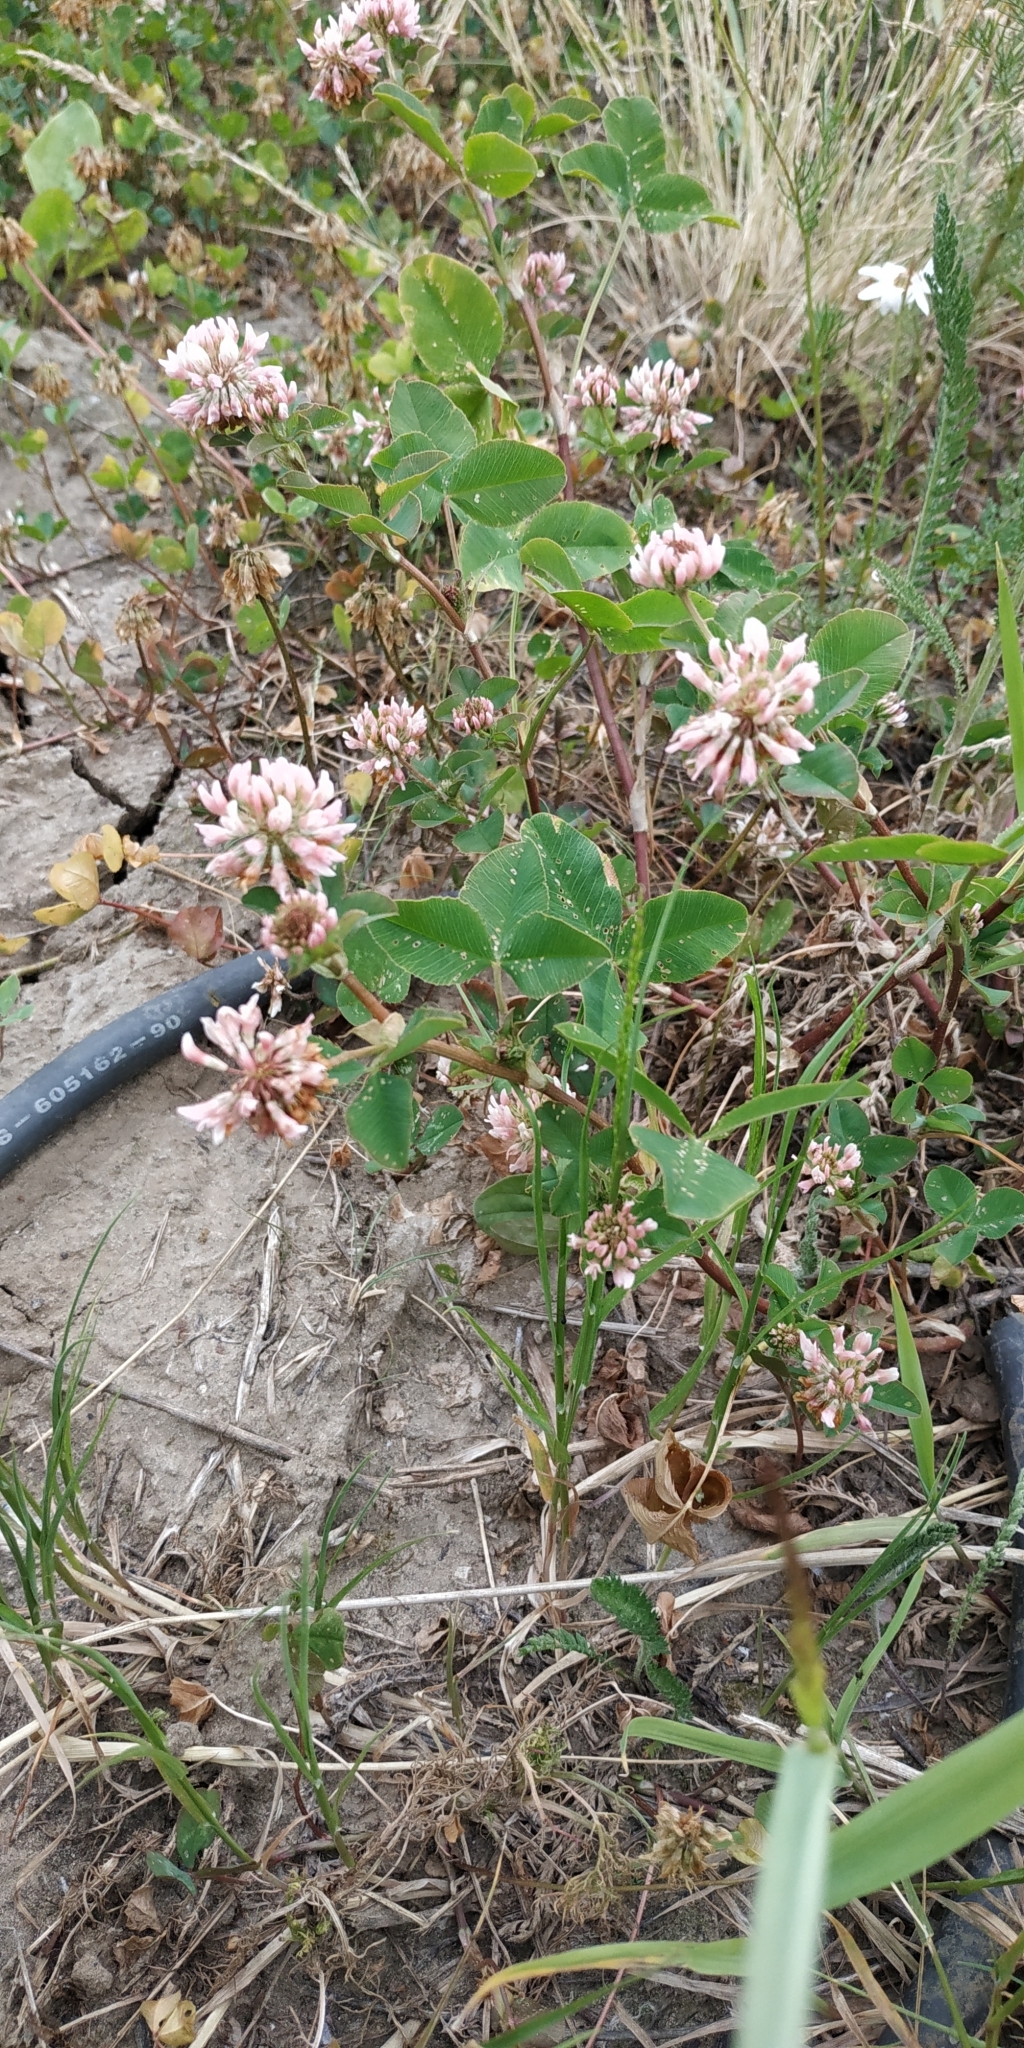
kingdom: Plantae
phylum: Tracheophyta
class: Magnoliopsida
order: Fabales
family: Fabaceae
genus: Trifolium
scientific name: Trifolium hybridum
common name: Alsike clover
